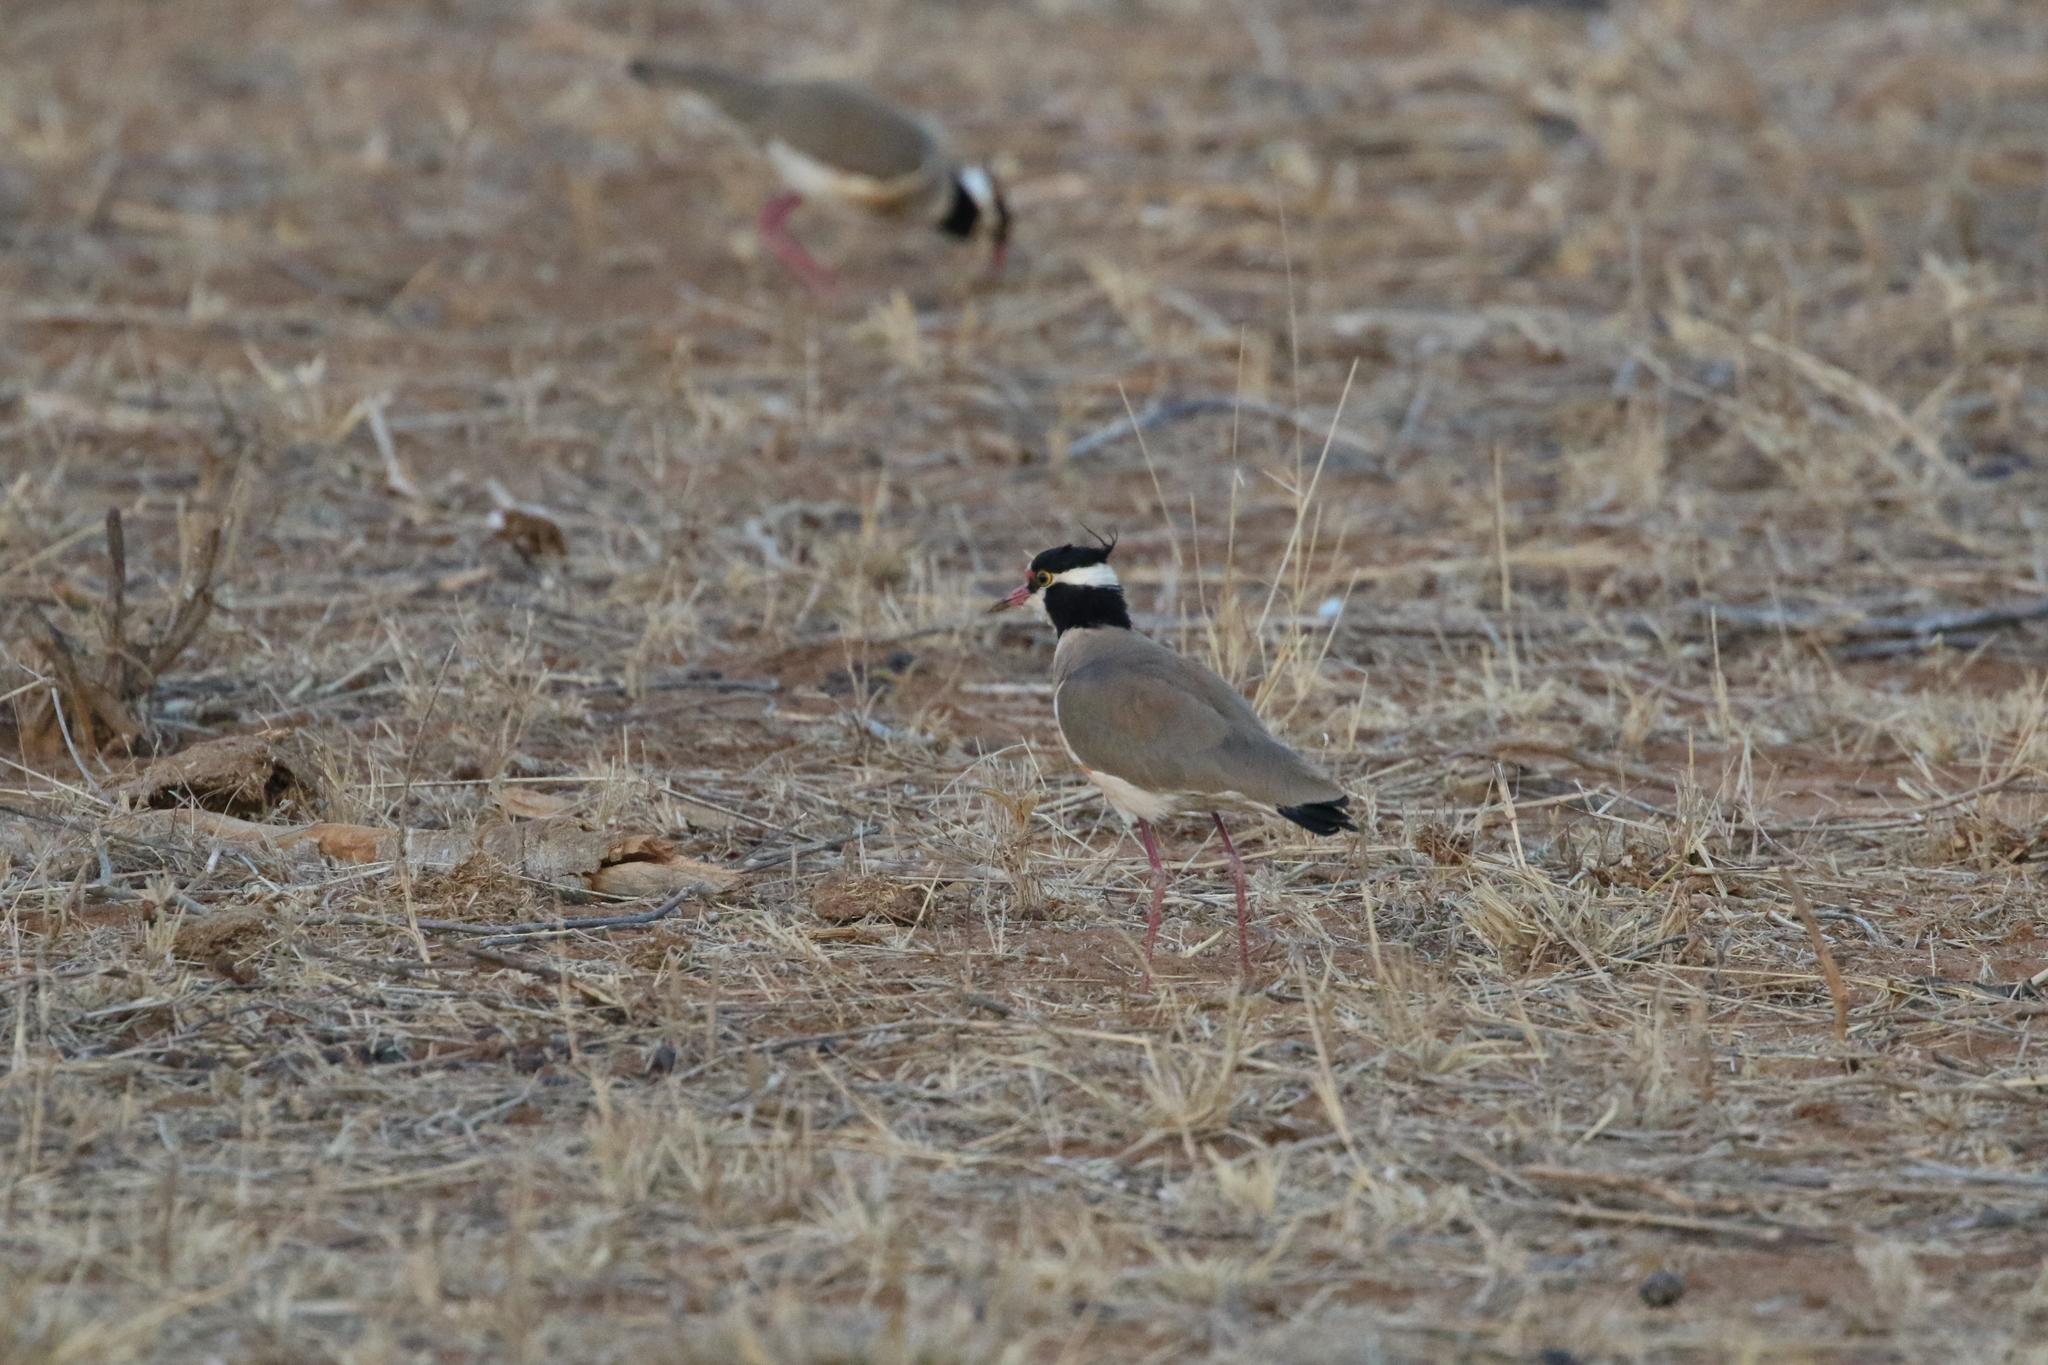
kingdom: Animalia
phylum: Chordata
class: Aves
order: Charadriiformes
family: Charadriidae
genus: Vanellus
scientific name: Vanellus tectus
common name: Black-headed lapwing
